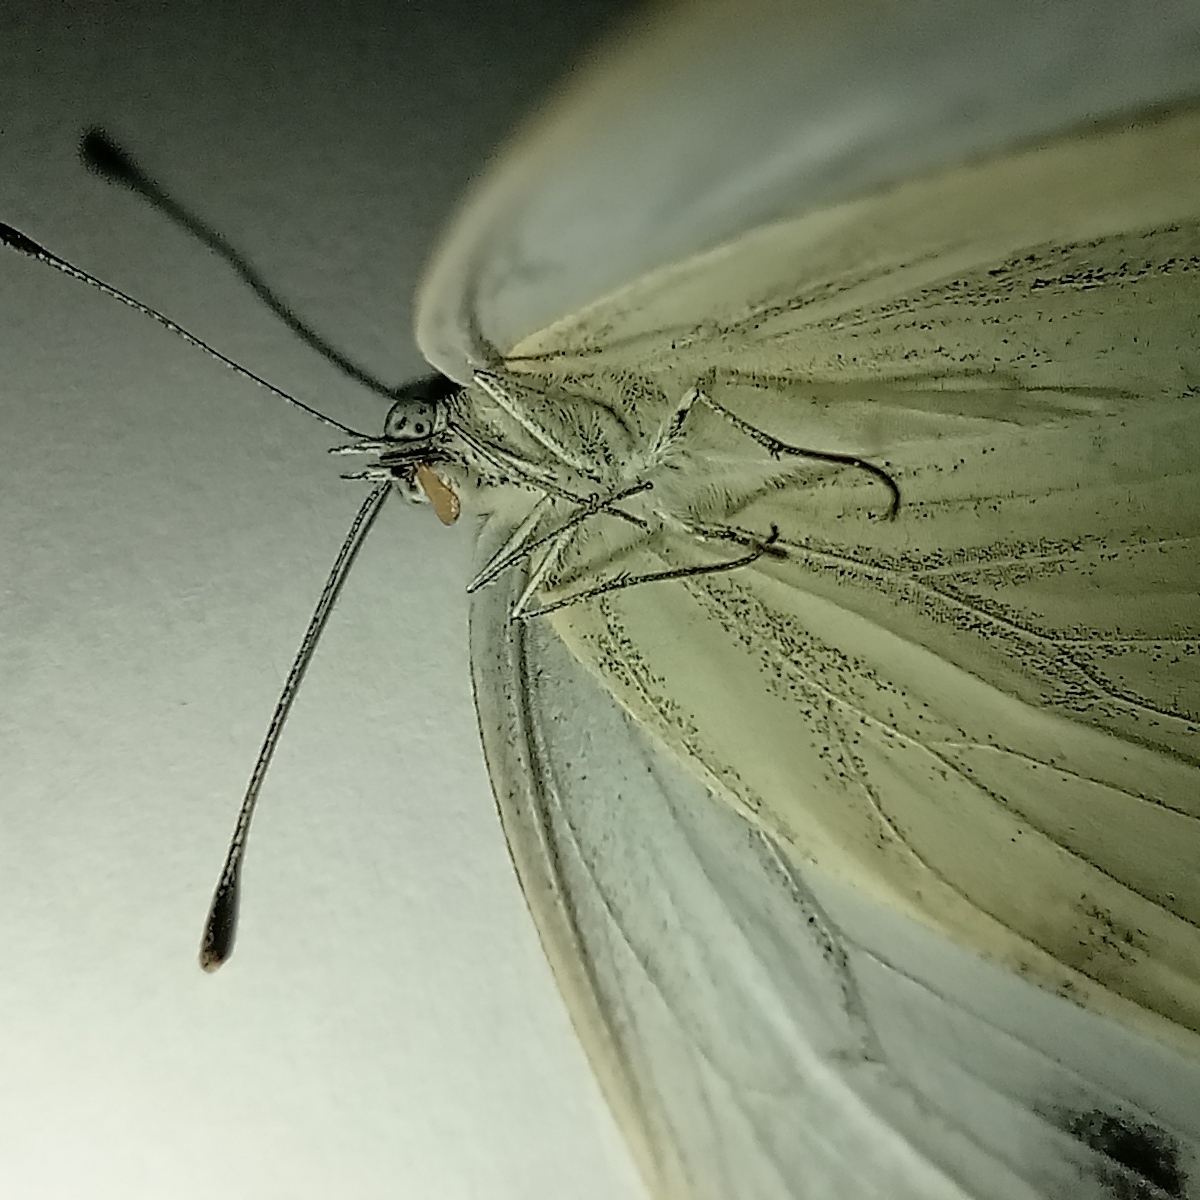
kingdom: Animalia
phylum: Arthropoda
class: Insecta
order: Lepidoptera
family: Pieridae
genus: Pieris
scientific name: Pieris napi
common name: Green-veined white
